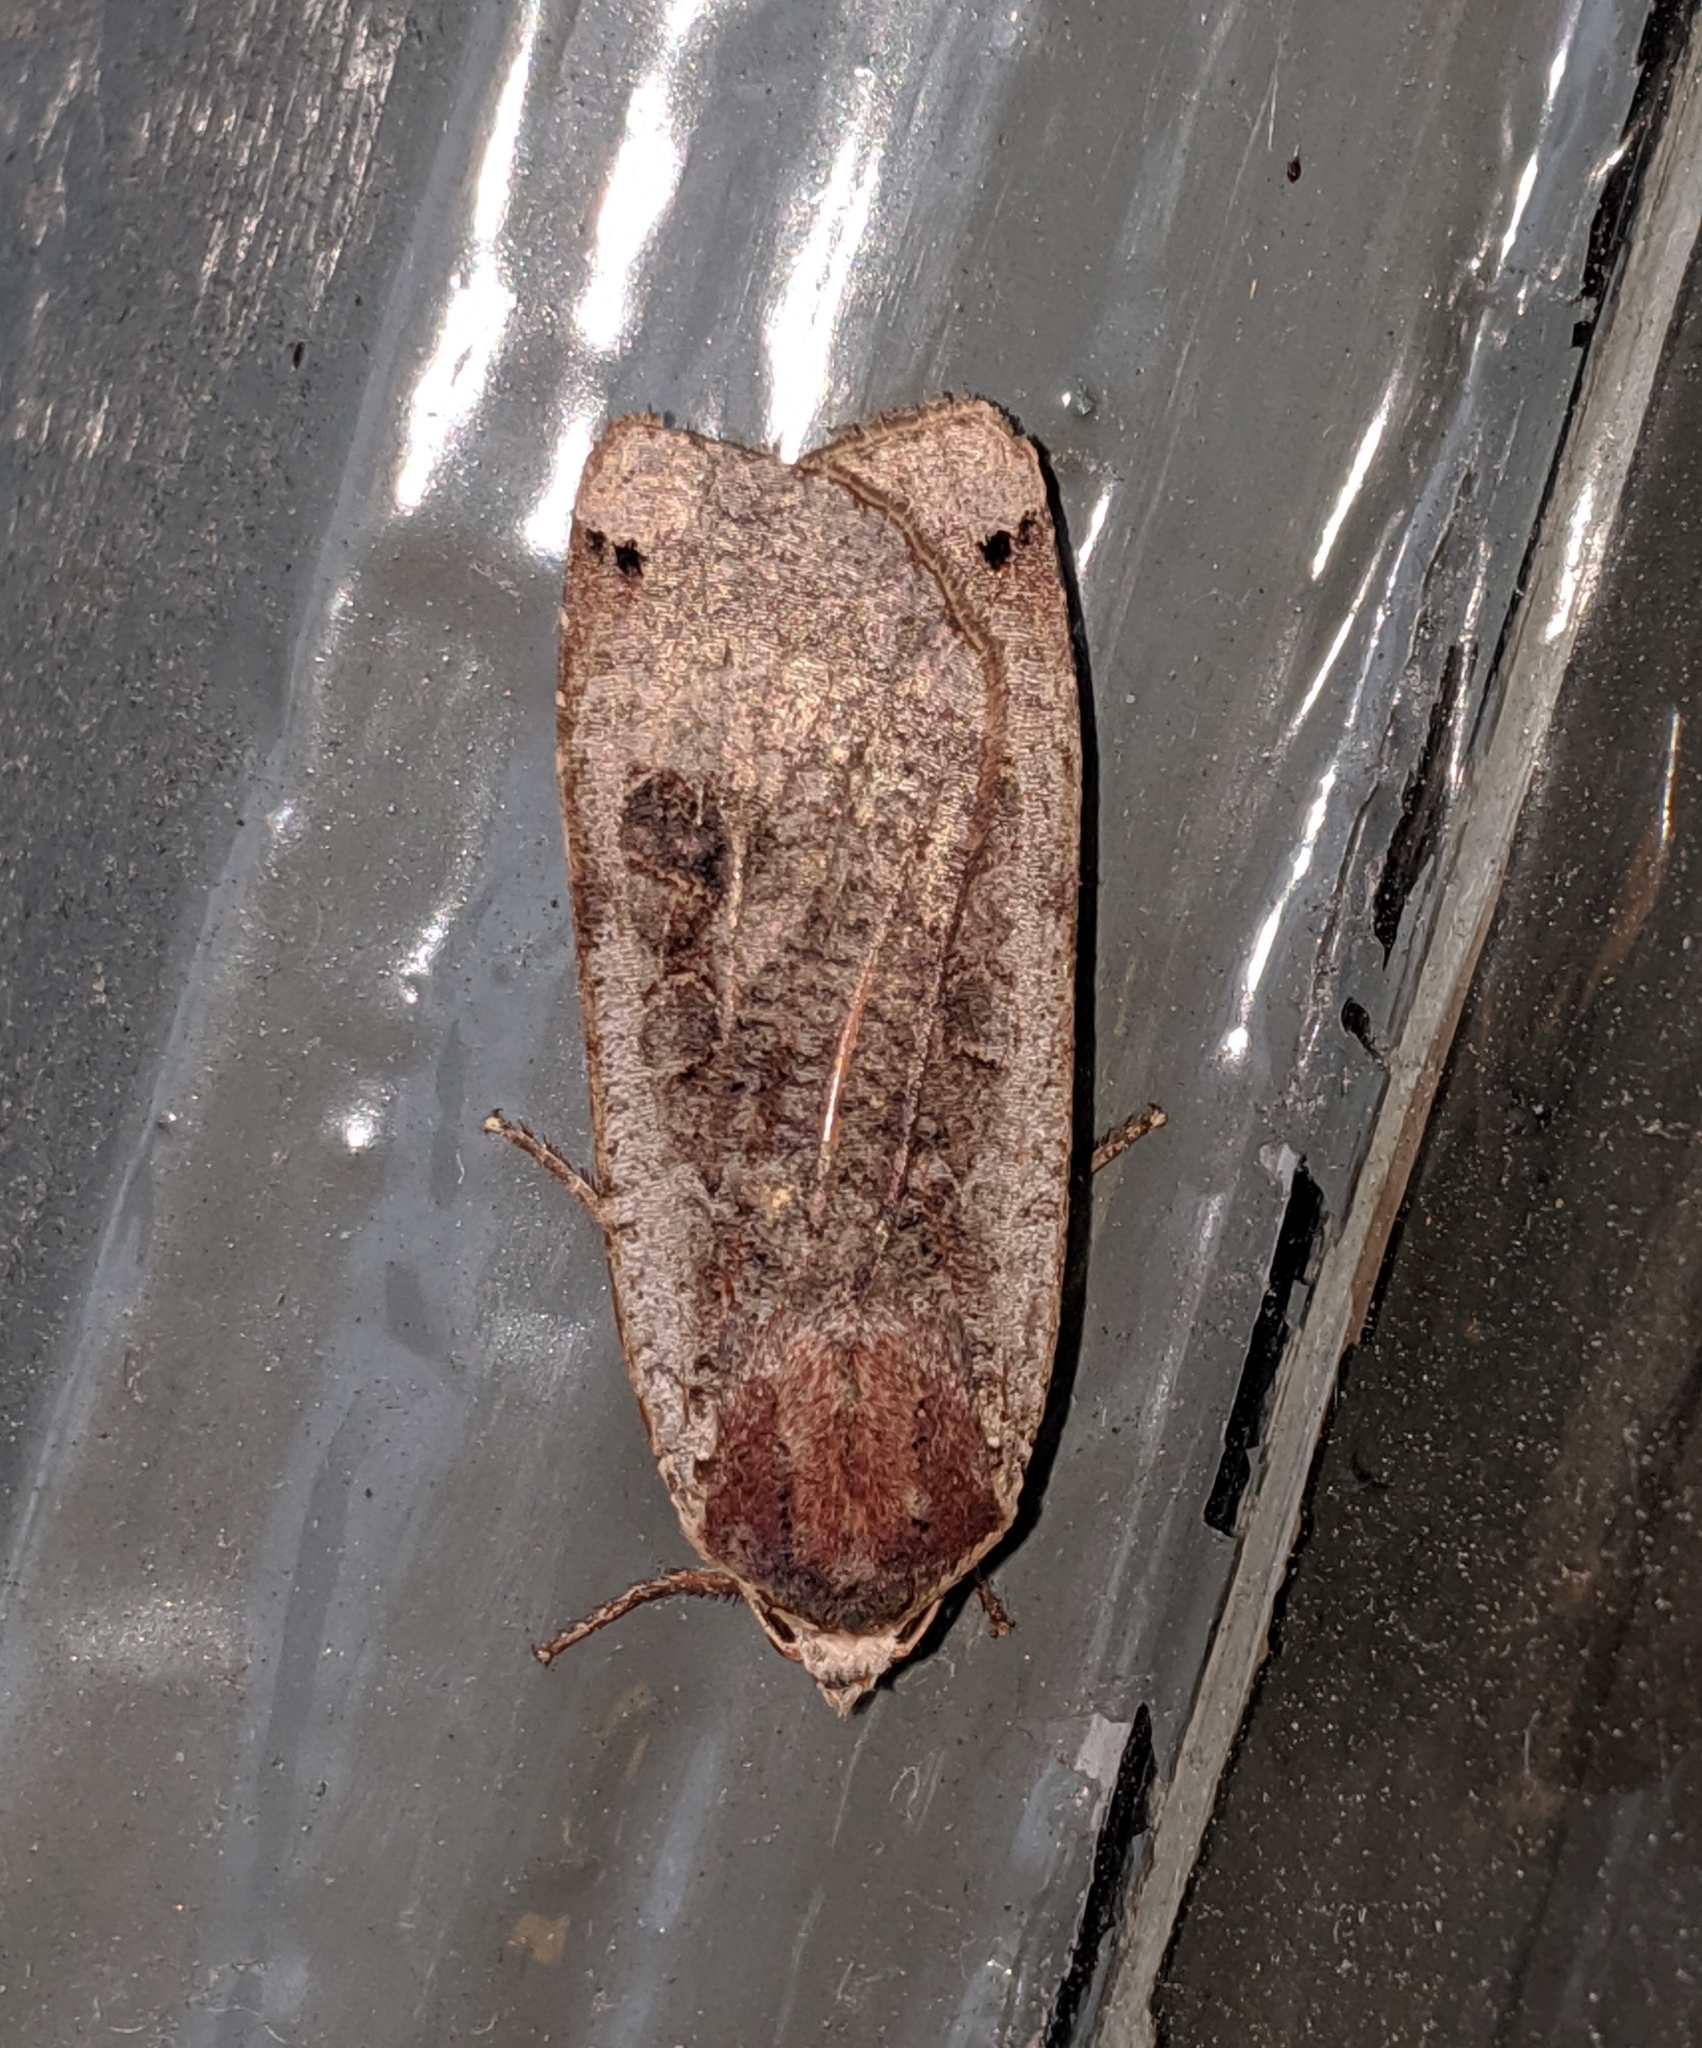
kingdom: Animalia
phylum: Arthropoda
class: Insecta
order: Lepidoptera
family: Noctuidae
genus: Noctua
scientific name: Noctua pronuba
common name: Large yellow underwing
